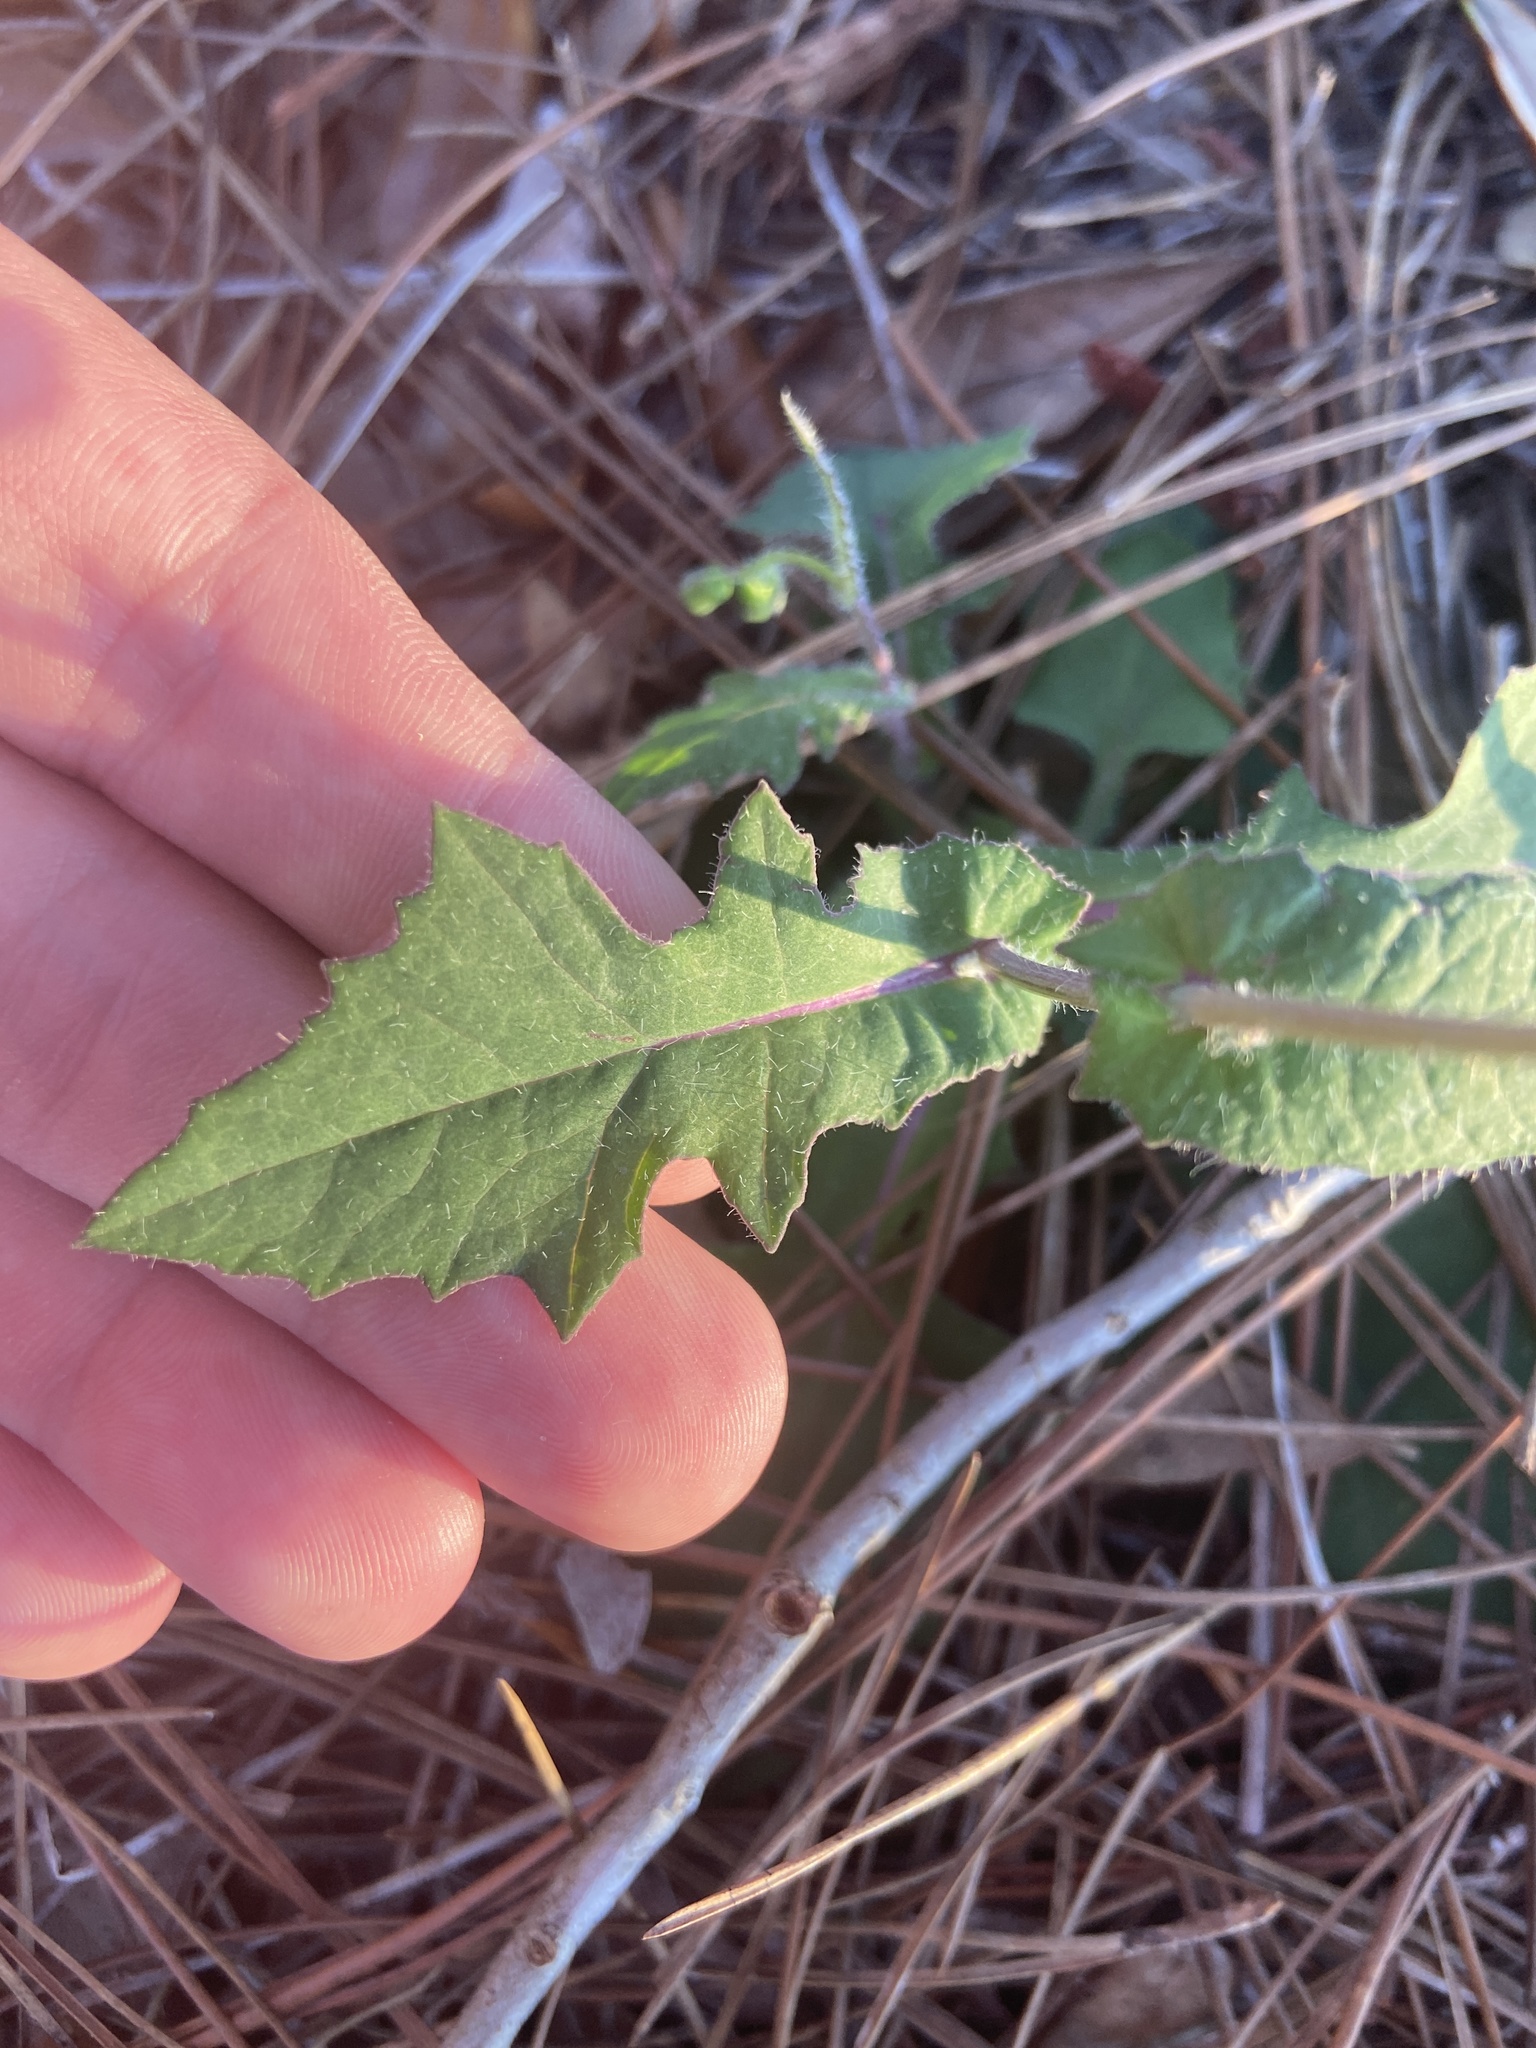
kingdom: Plantae
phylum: Tracheophyta
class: Magnoliopsida
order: Asterales
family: Asteraceae
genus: Emilia
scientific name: Emilia sonchifolia
